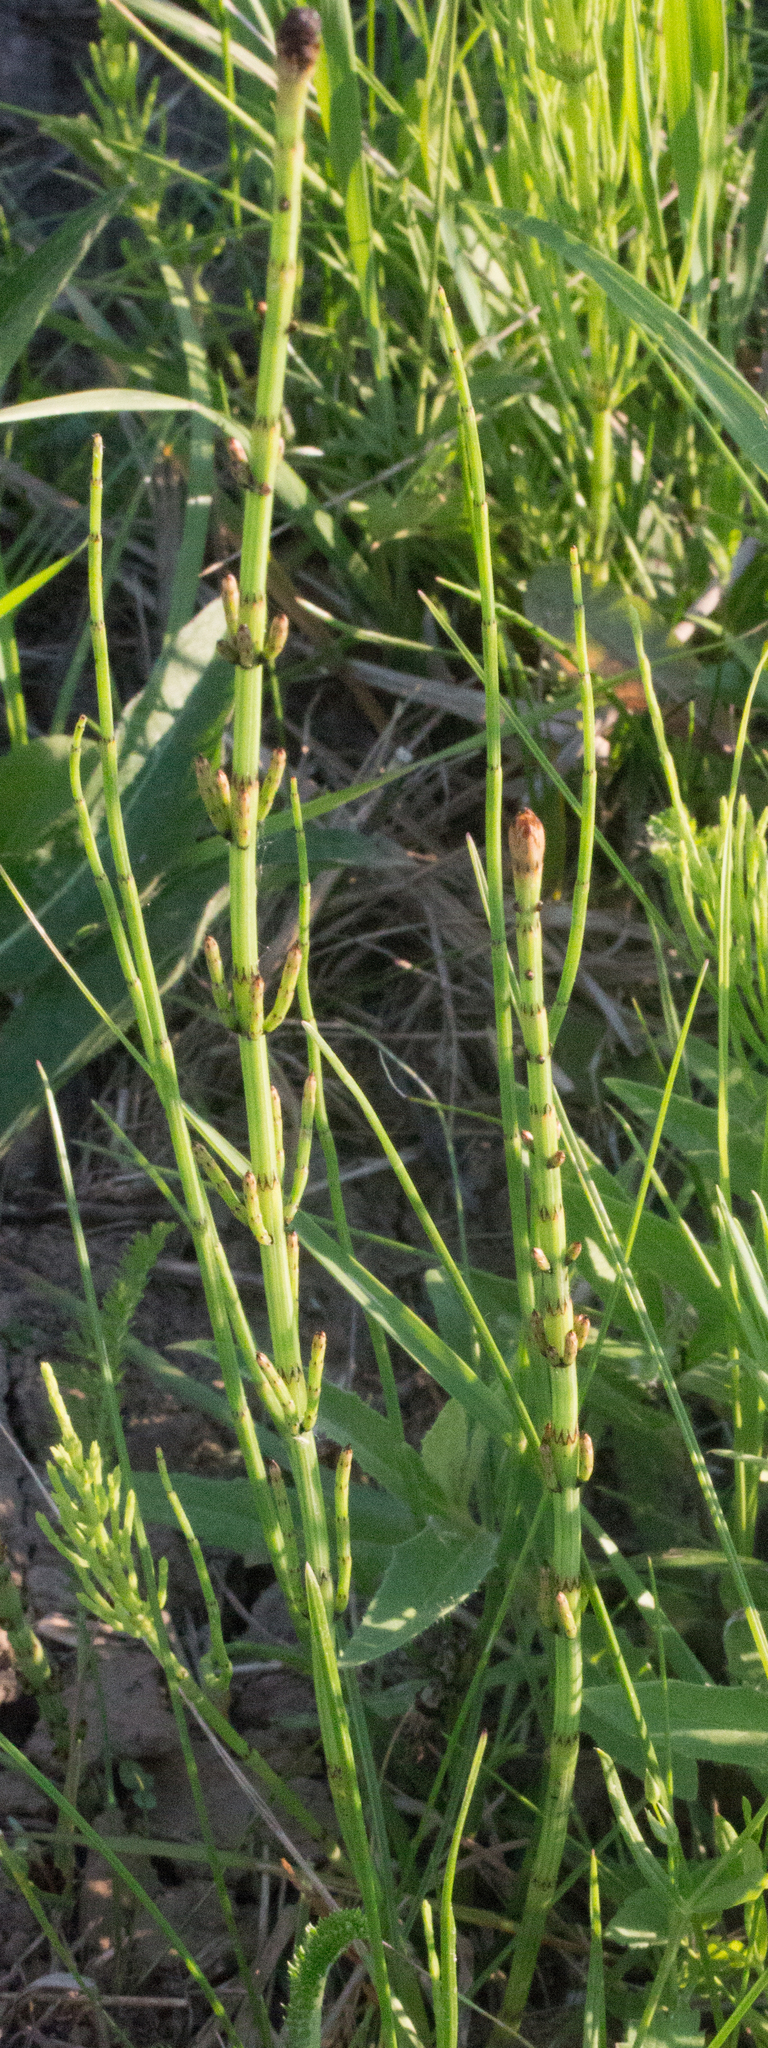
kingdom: Plantae
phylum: Tracheophyta
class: Polypodiopsida
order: Equisetales
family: Equisetaceae
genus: Equisetum
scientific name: Equisetum palustre
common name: Marsh horsetail
